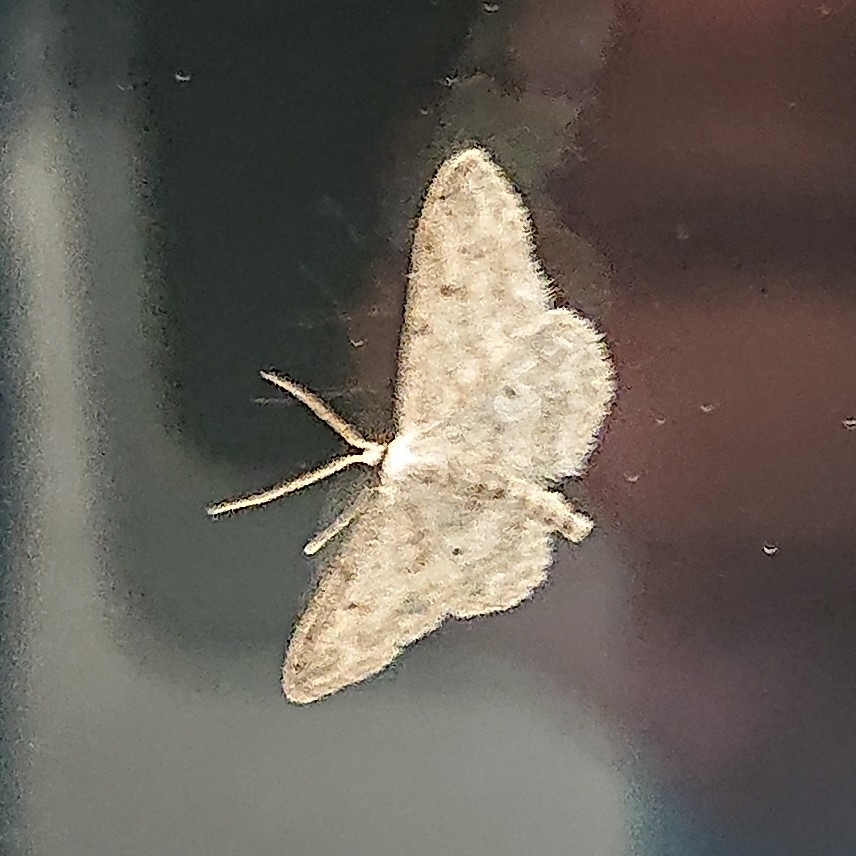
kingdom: Animalia
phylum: Arthropoda
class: Insecta
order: Lepidoptera
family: Geometridae
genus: Idaea
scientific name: Idaea seriata
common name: Small dusty wave
